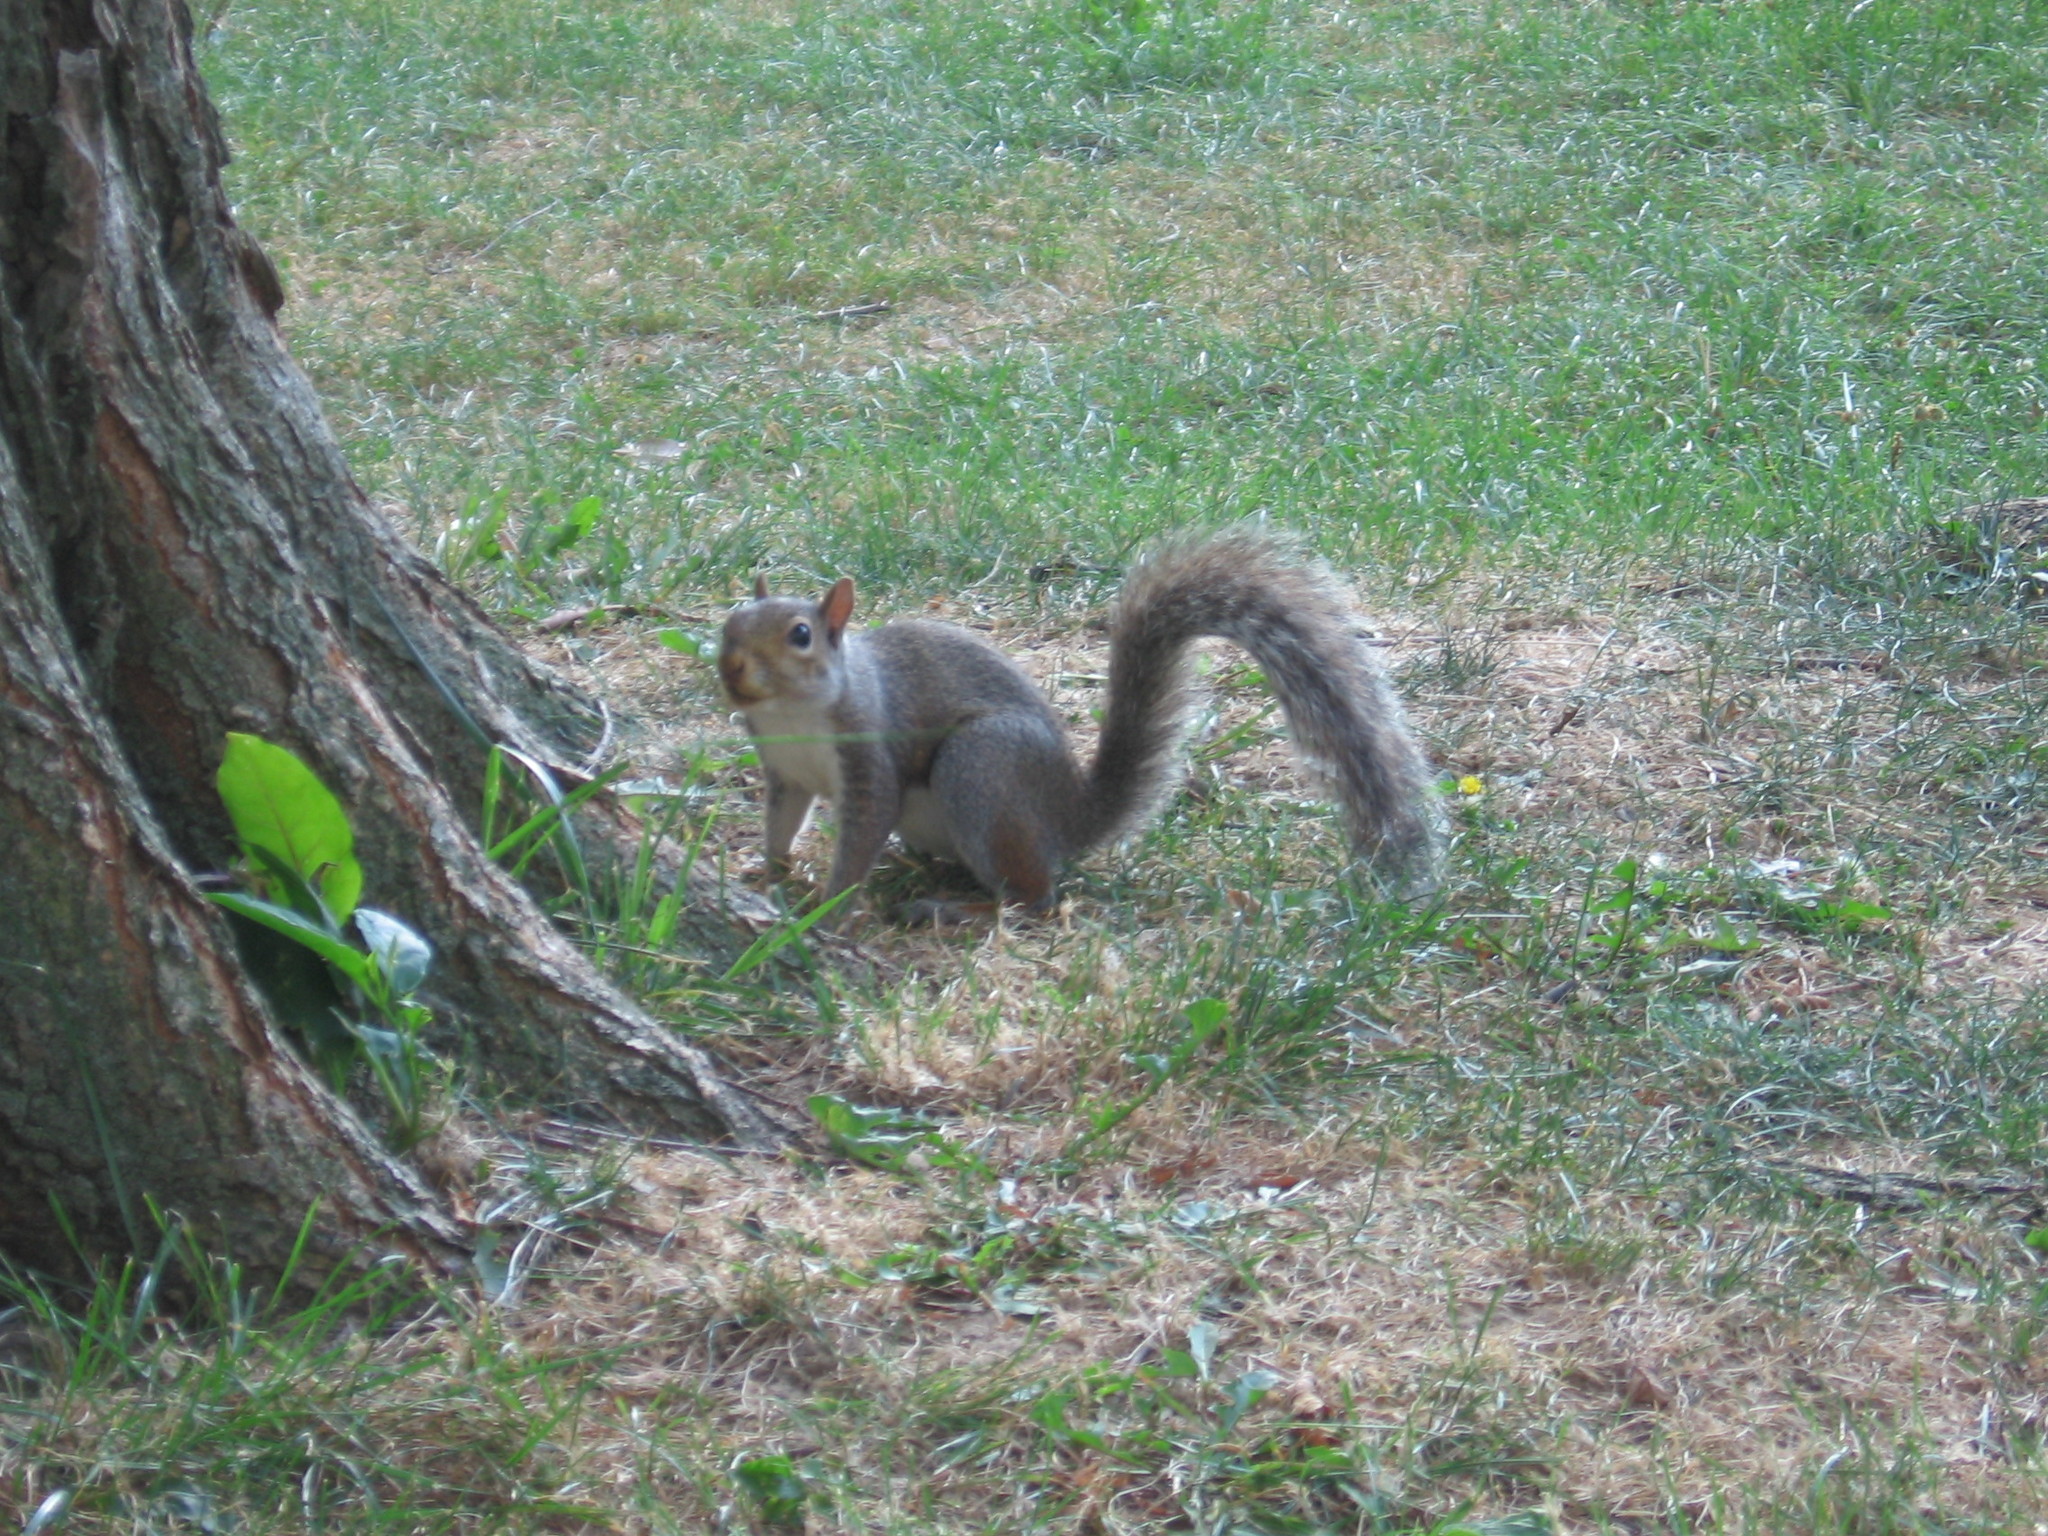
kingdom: Animalia
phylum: Chordata
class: Mammalia
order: Rodentia
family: Sciuridae
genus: Sciurus
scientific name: Sciurus carolinensis
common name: Eastern gray squirrel
